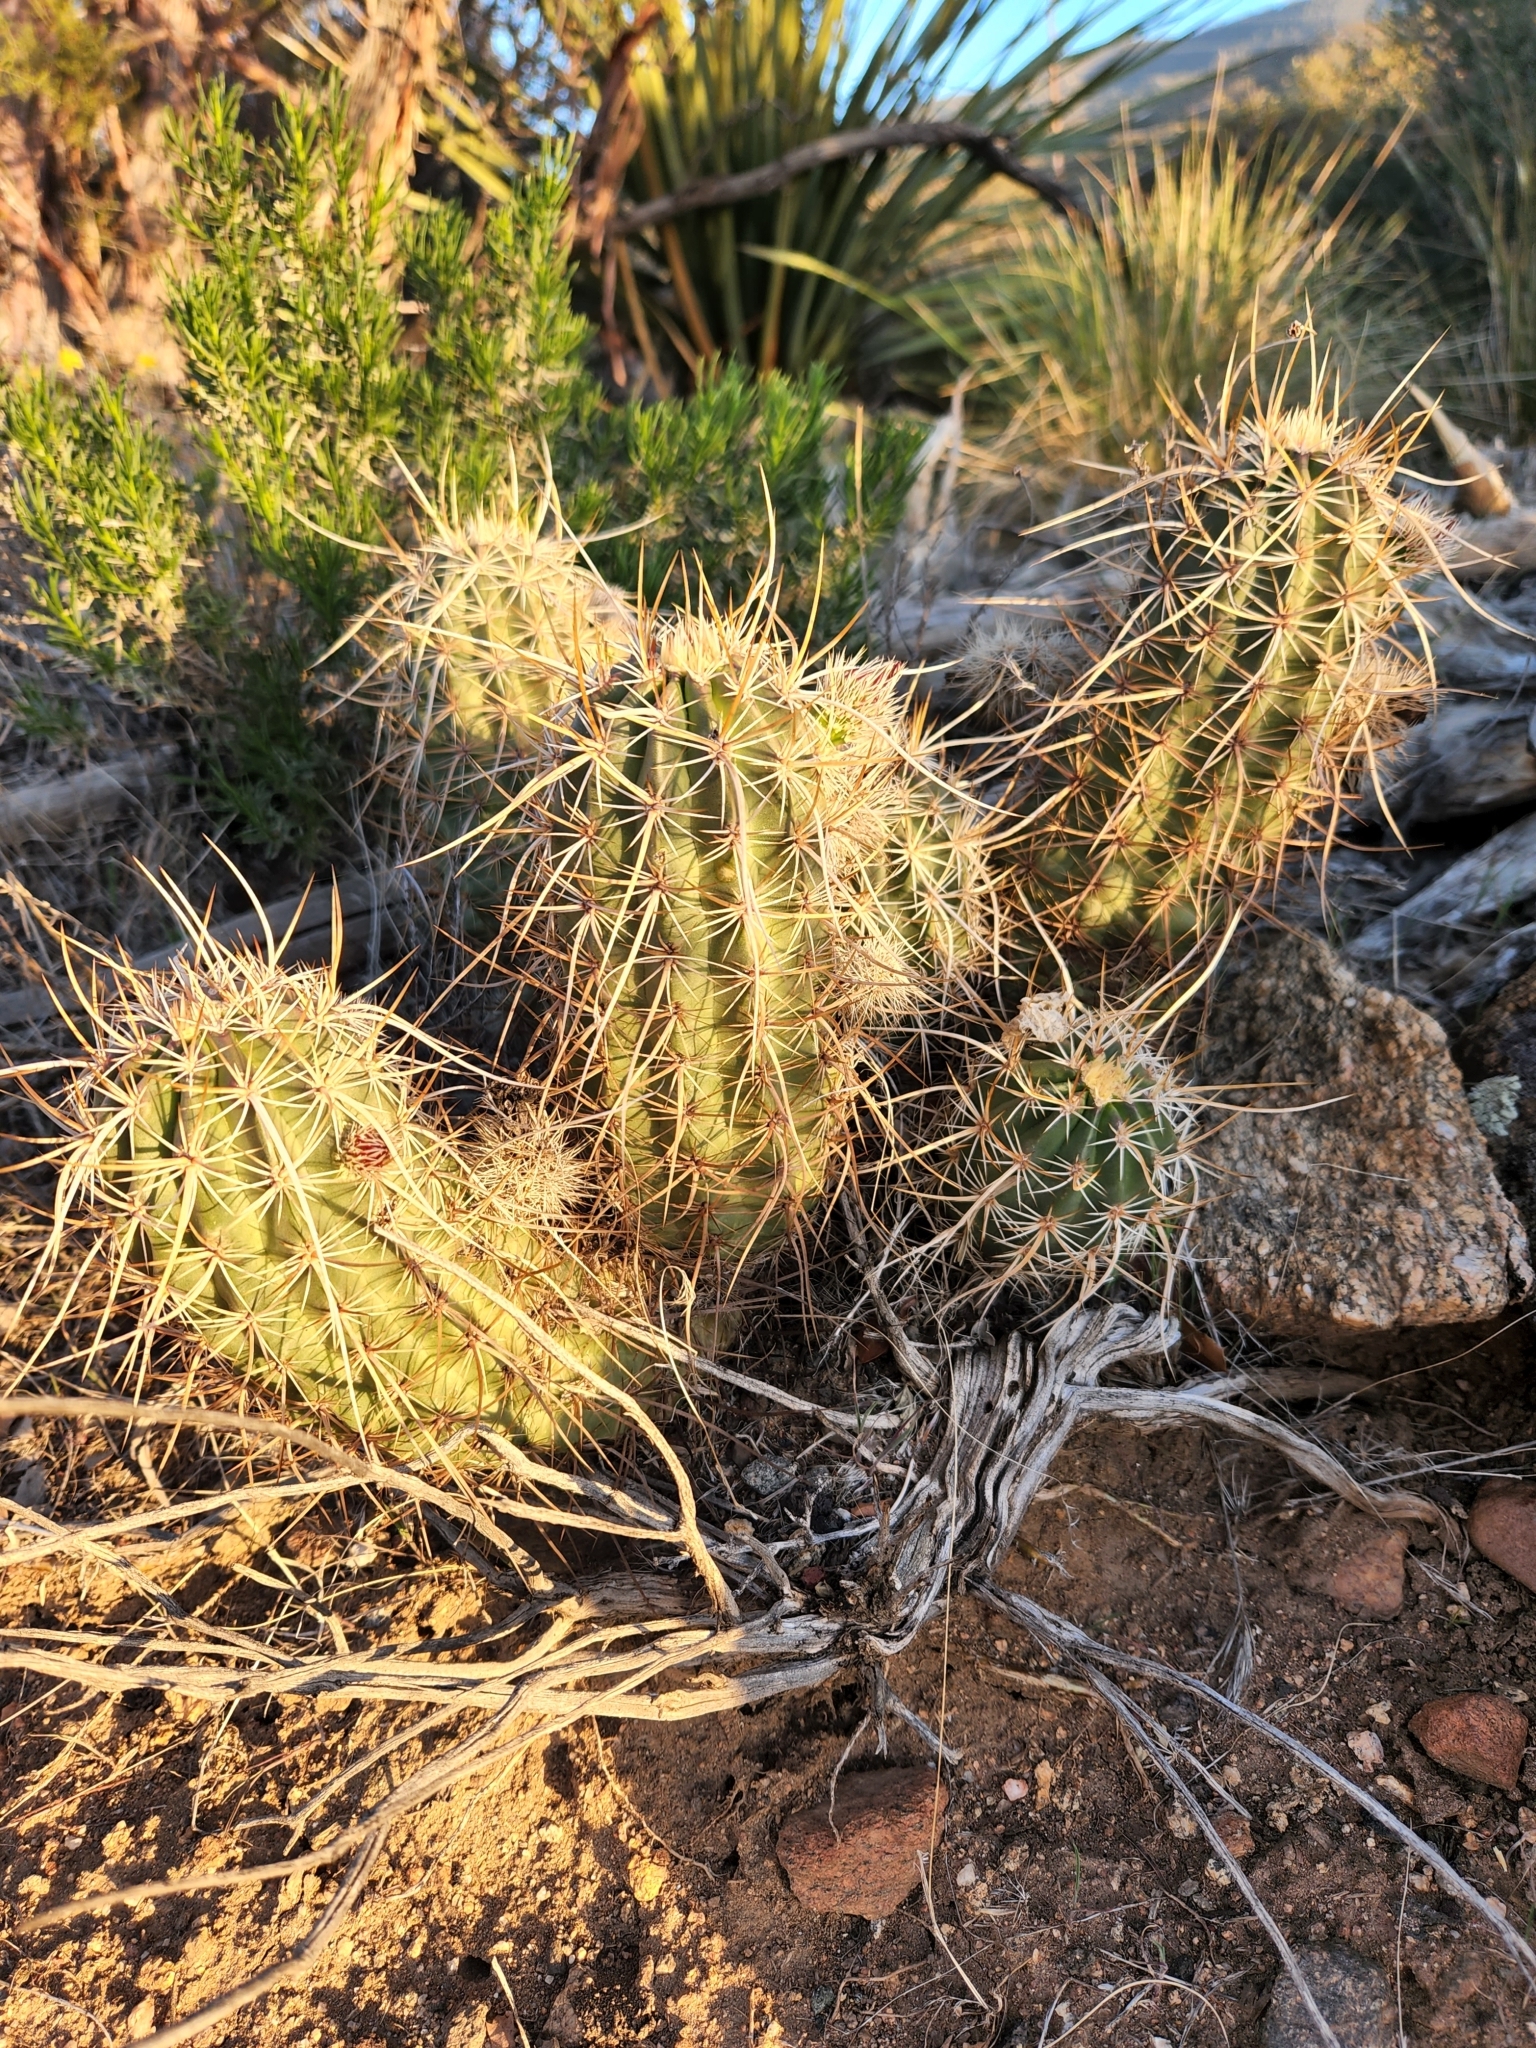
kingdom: Plantae
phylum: Tracheophyta
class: Magnoliopsida
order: Caryophyllales
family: Cactaceae
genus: Echinocereus
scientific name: Echinocereus engelmannii
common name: Engelmann's hedgehog cactus
